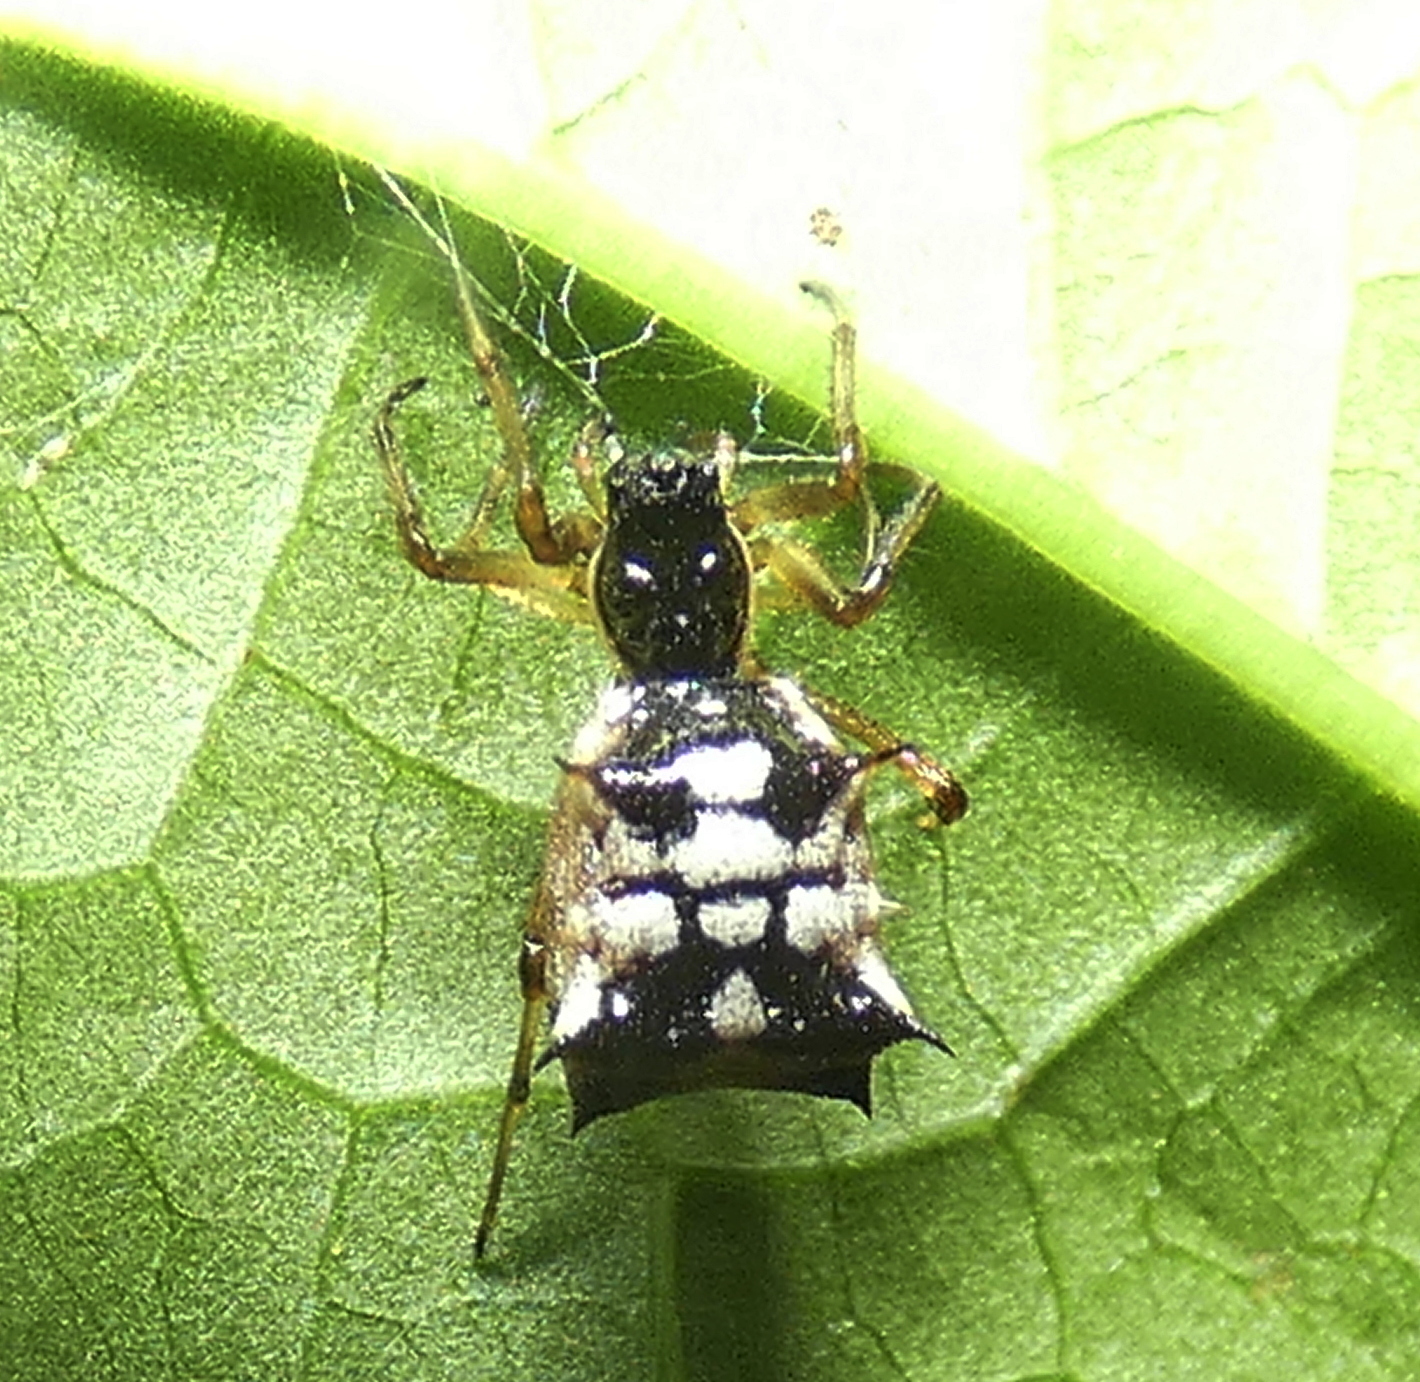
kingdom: Animalia
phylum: Arthropoda
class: Arachnida
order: Araneae
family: Araneidae
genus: Micrathena
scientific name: Micrathena picta
